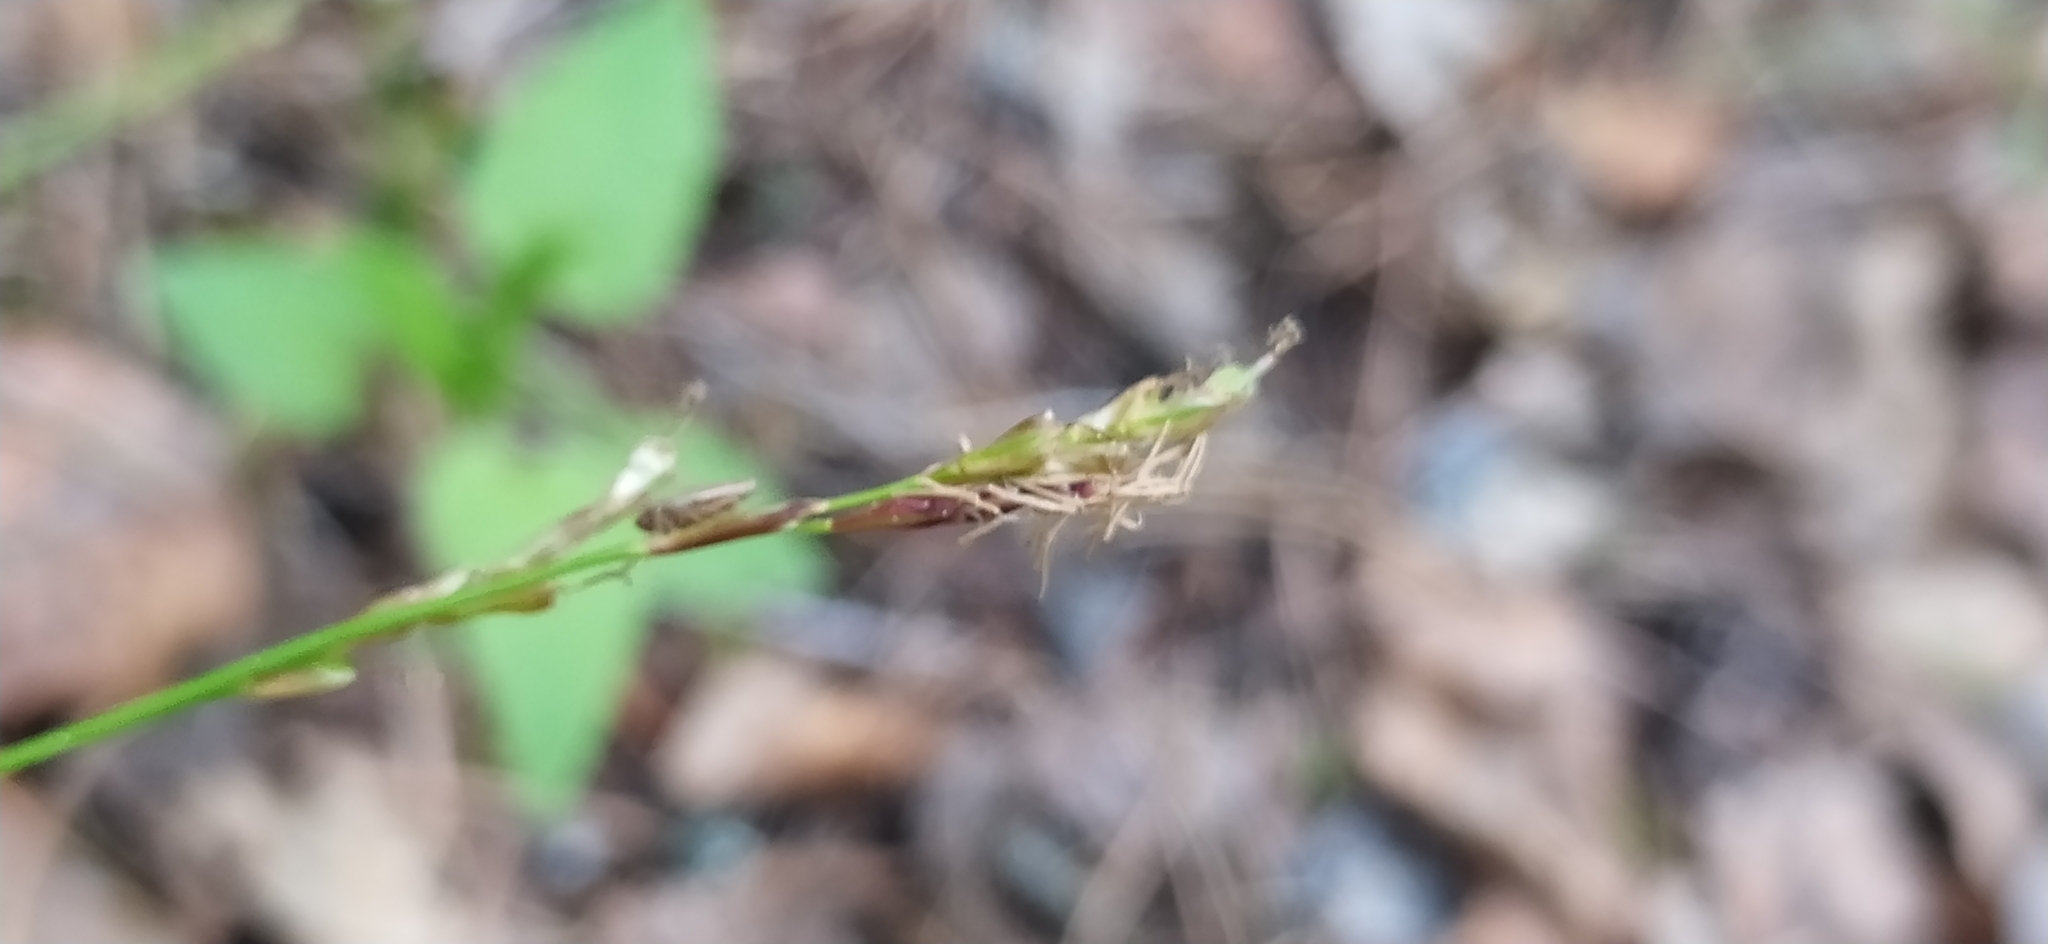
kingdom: Plantae
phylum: Tracheophyta
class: Liliopsida
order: Poales
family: Cyperaceae
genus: Carex
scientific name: Carex digitata
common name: Fingered sedge
